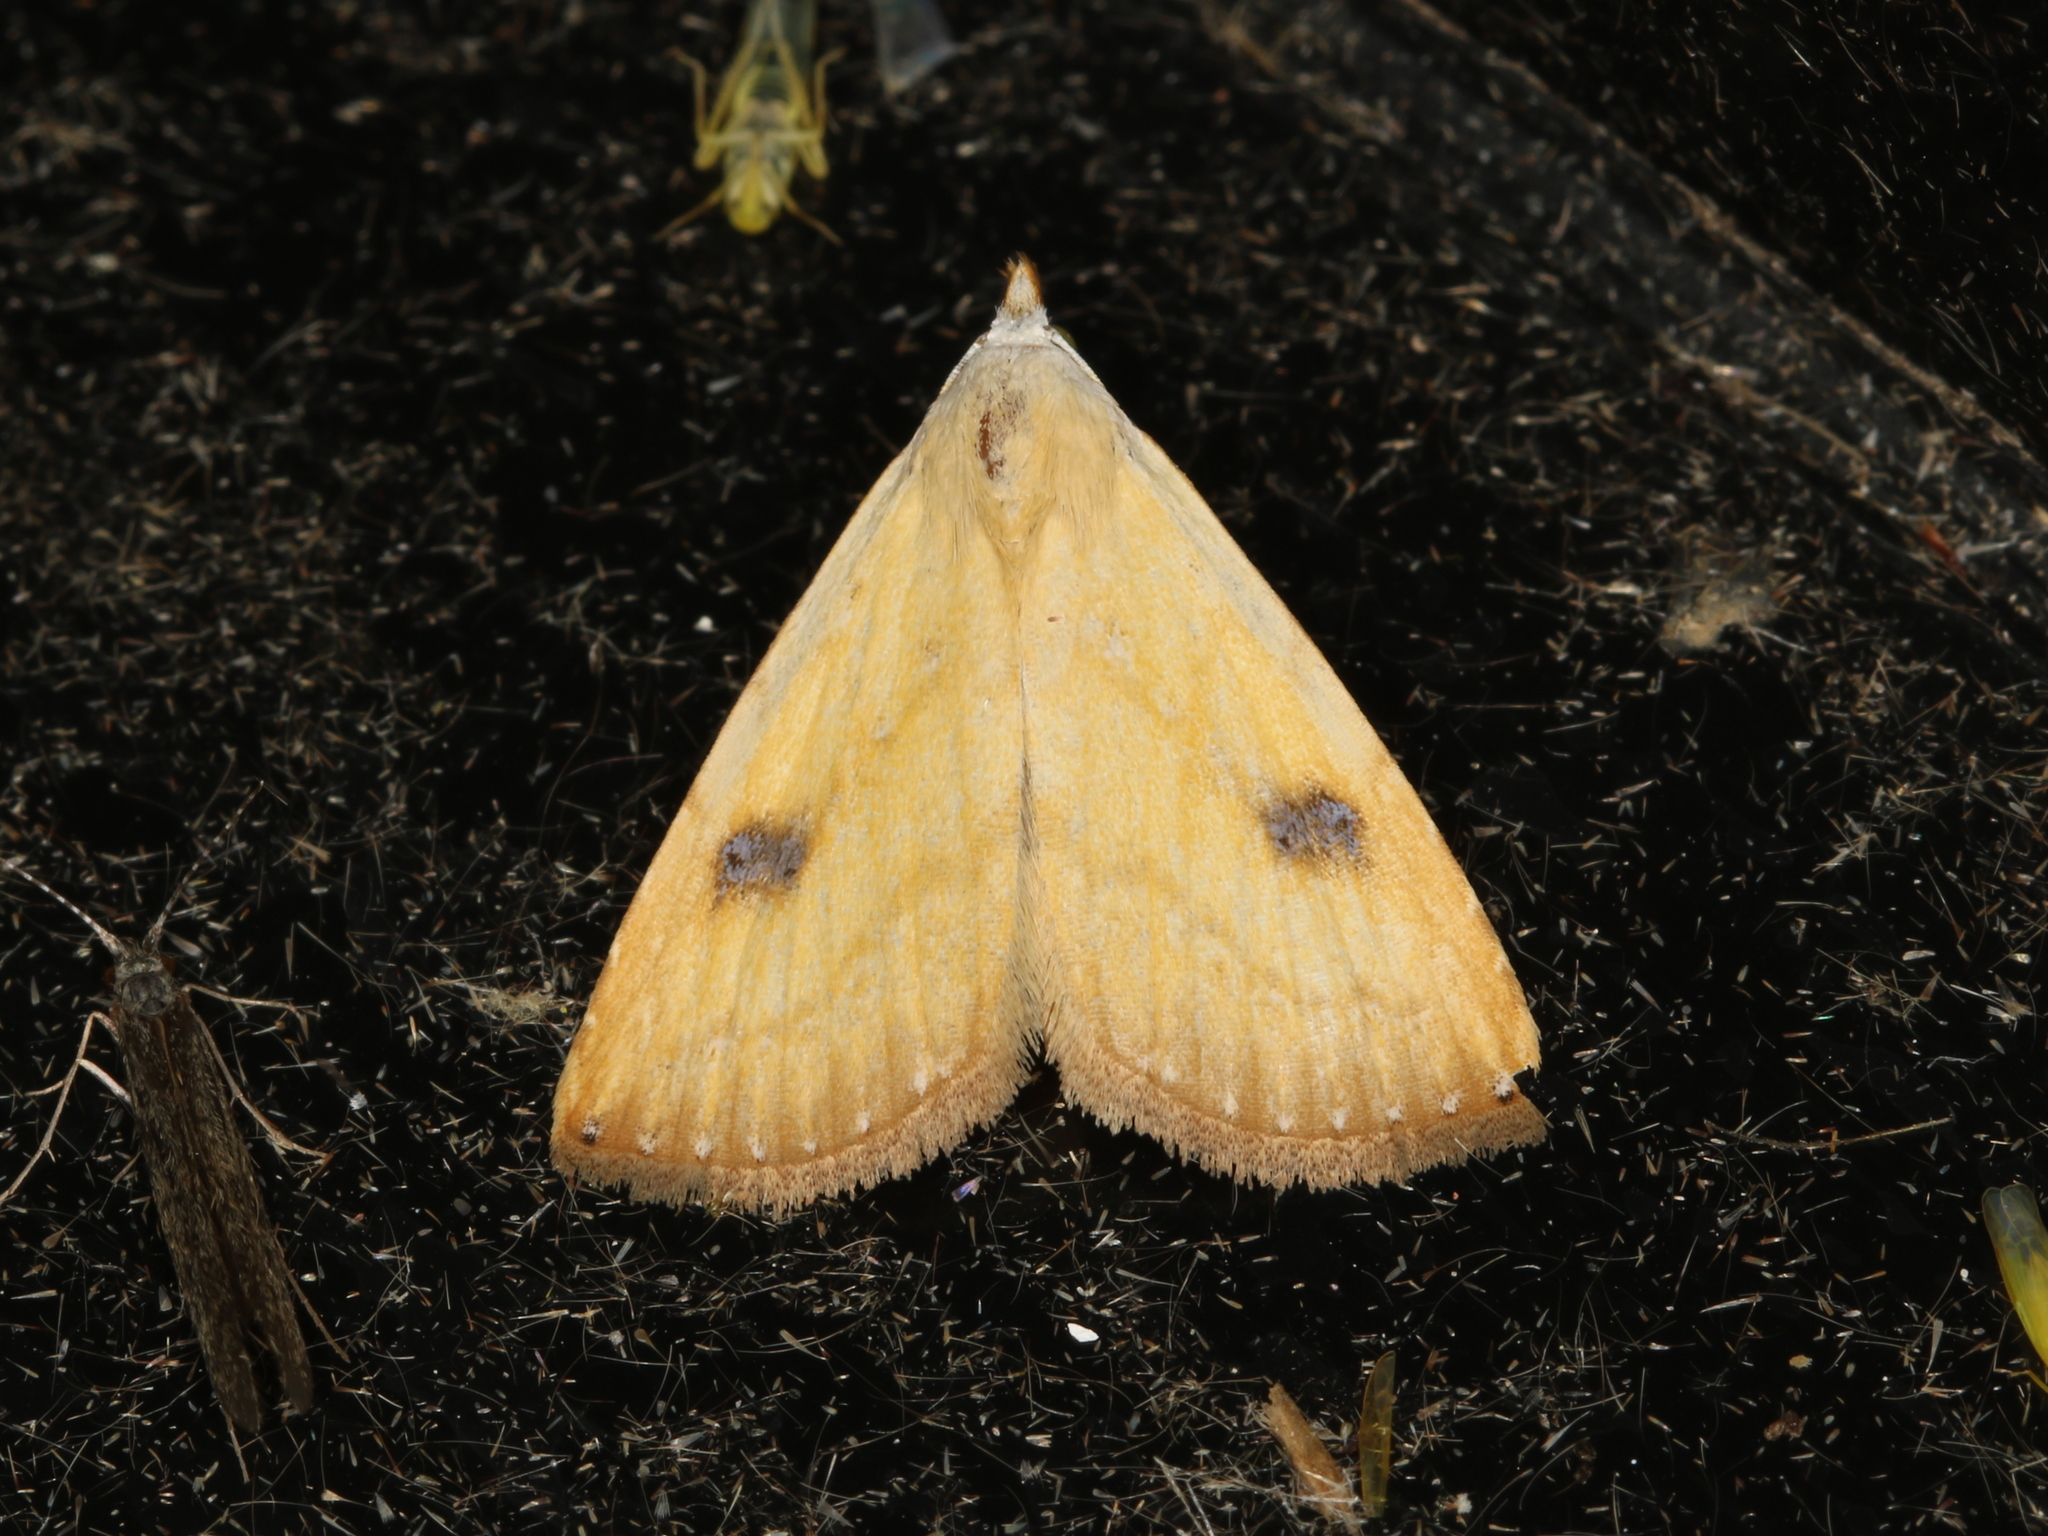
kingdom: Animalia
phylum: Arthropoda
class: Insecta
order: Lepidoptera
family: Erebidae
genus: Rivula
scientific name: Rivula sericealis
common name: Straw dot
